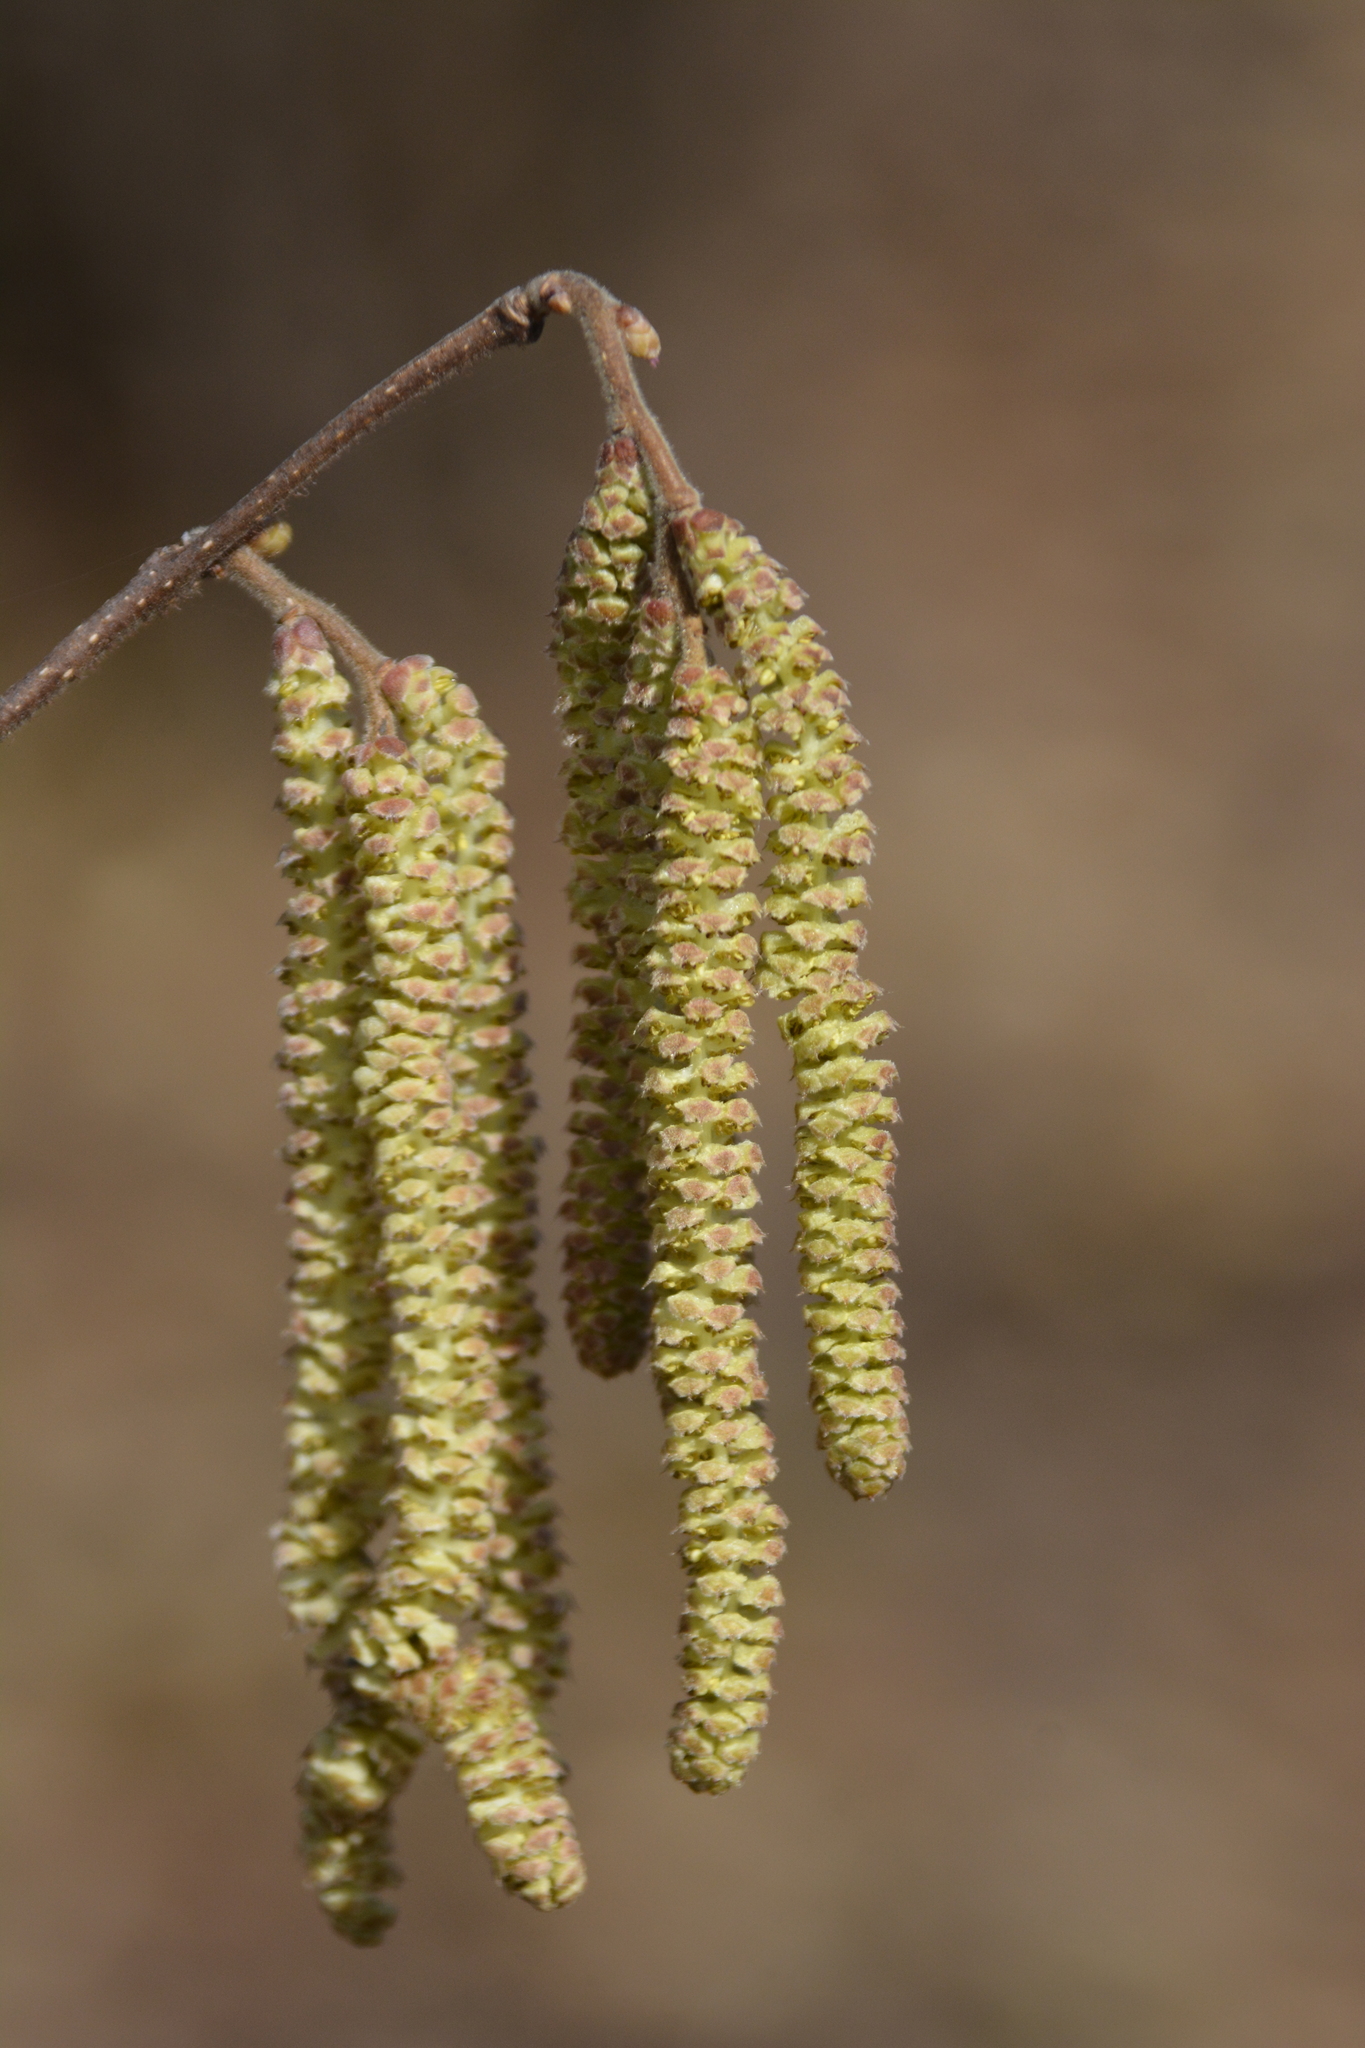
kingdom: Plantae
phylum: Tracheophyta
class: Magnoliopsida
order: Fagales
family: Betulaceae
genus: Corylus
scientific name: Corylus avellana
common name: European hazel
